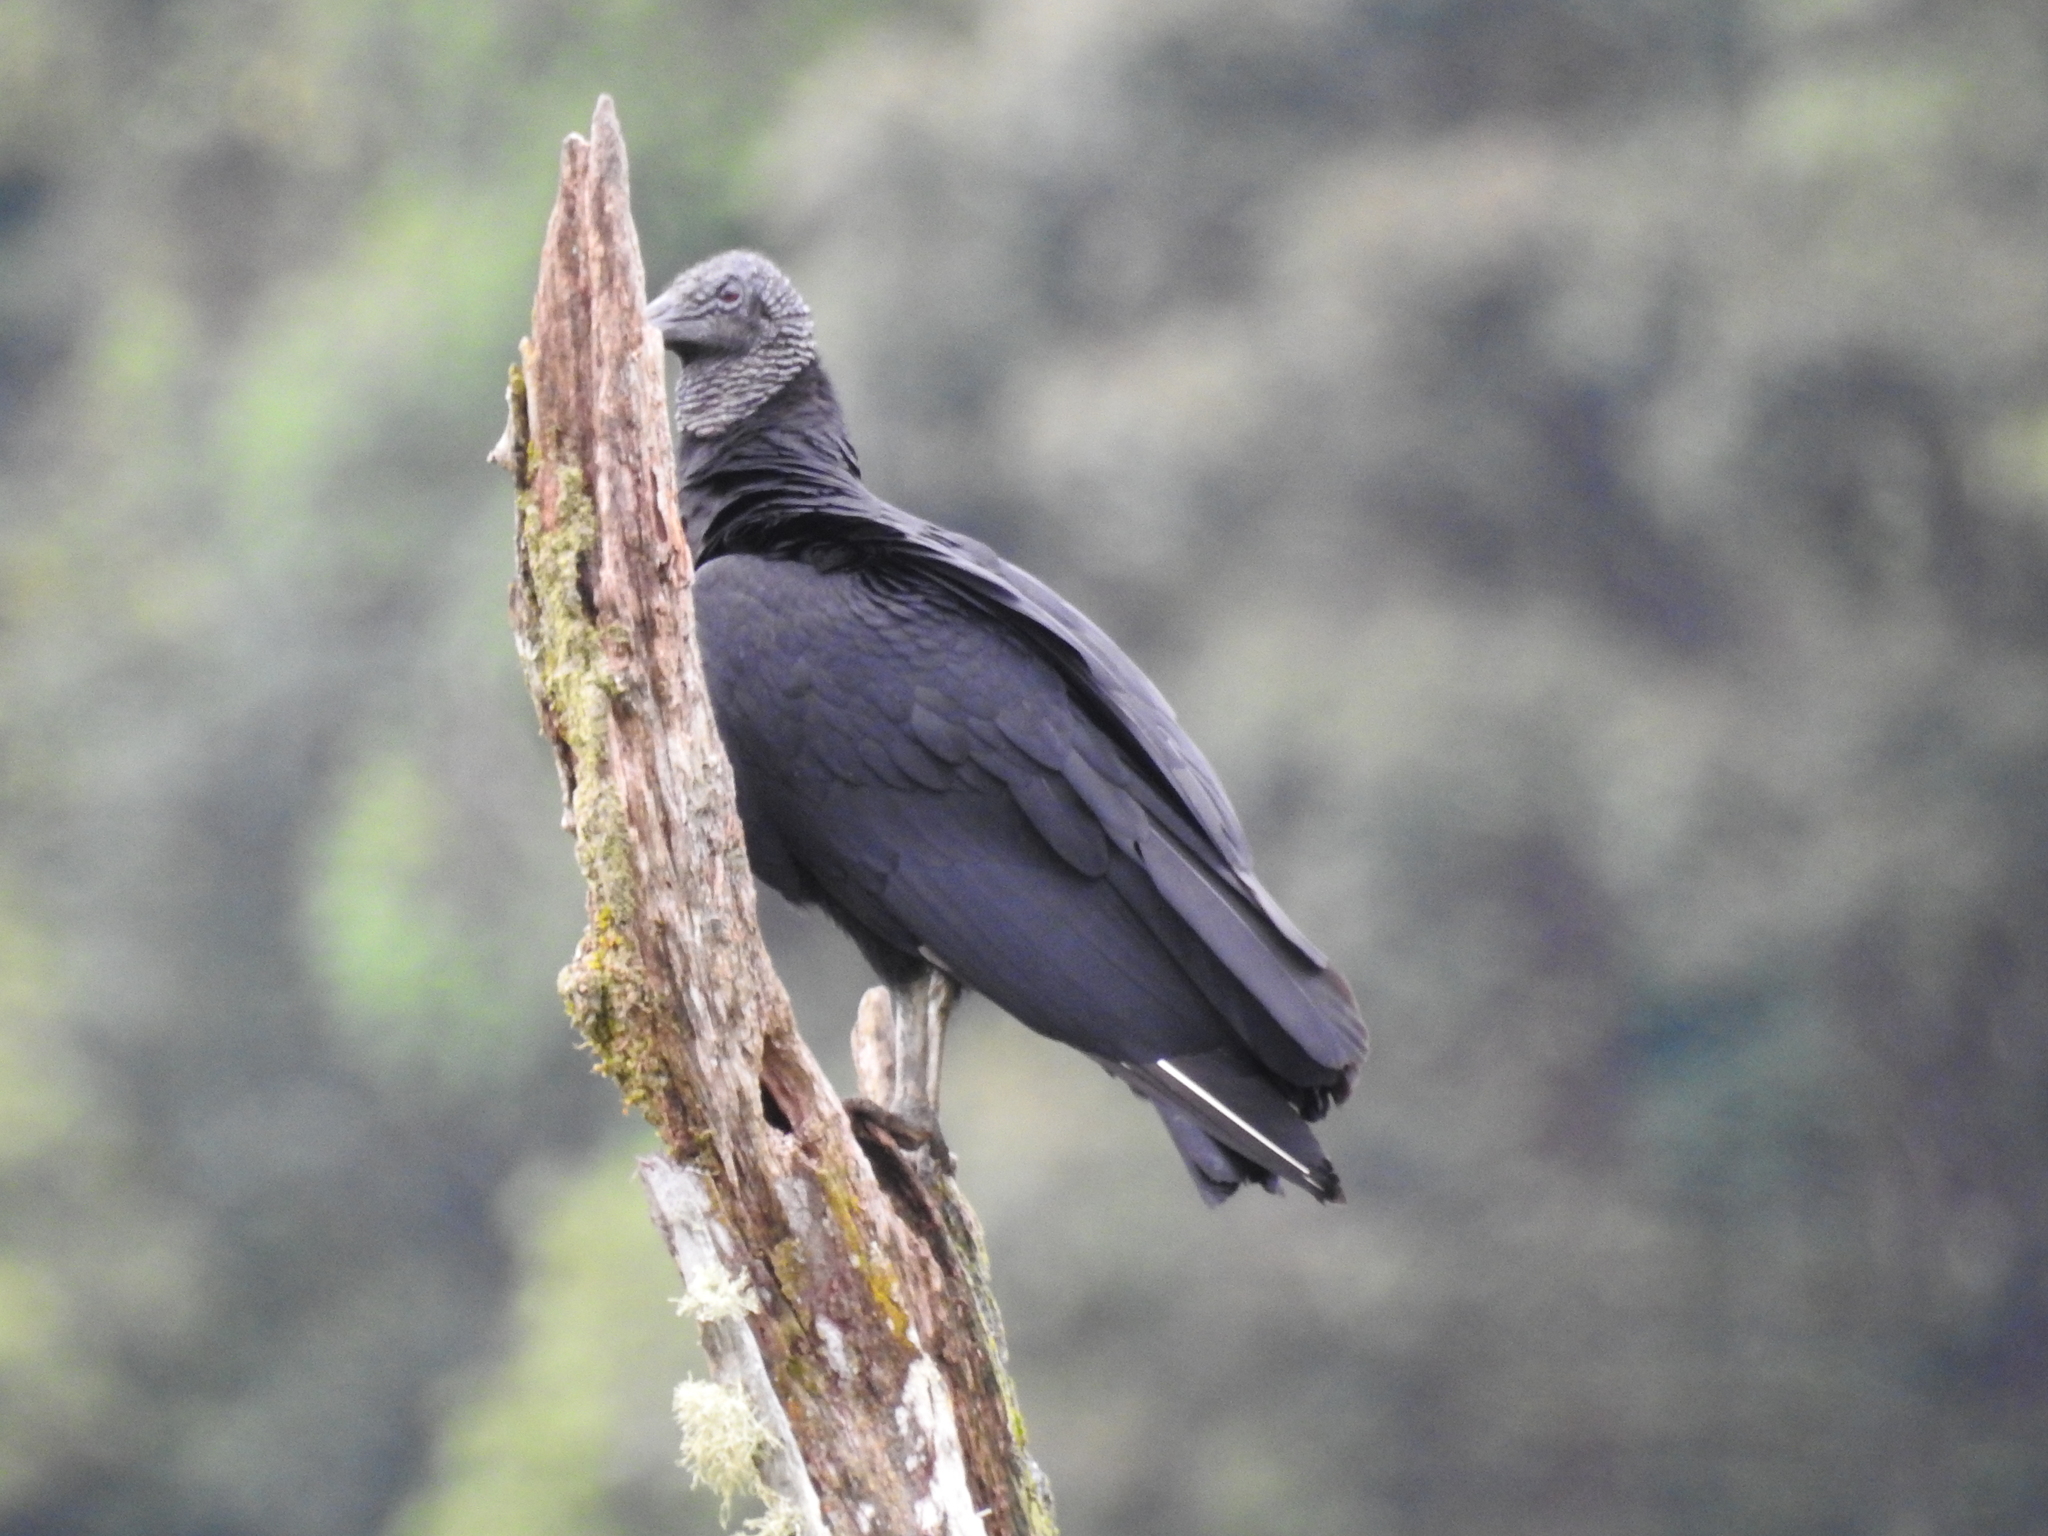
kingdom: Animalia
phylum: Chordata
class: Aves
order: Accipitriformes
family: Cathartidae
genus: Coragyps
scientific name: Coragyps atratus
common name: Black vulture
